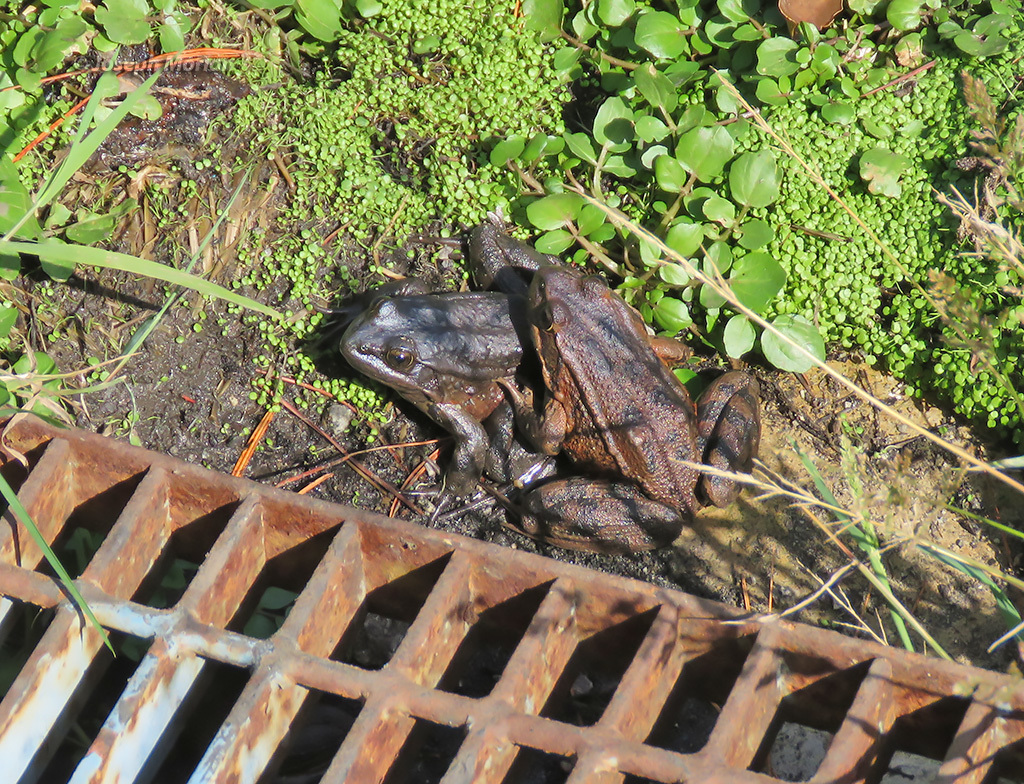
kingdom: Animalia
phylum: Chordata
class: Amphibia
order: Anura
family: Ranidae
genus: Rana
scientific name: Rana draytonii
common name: California red-legged frog
